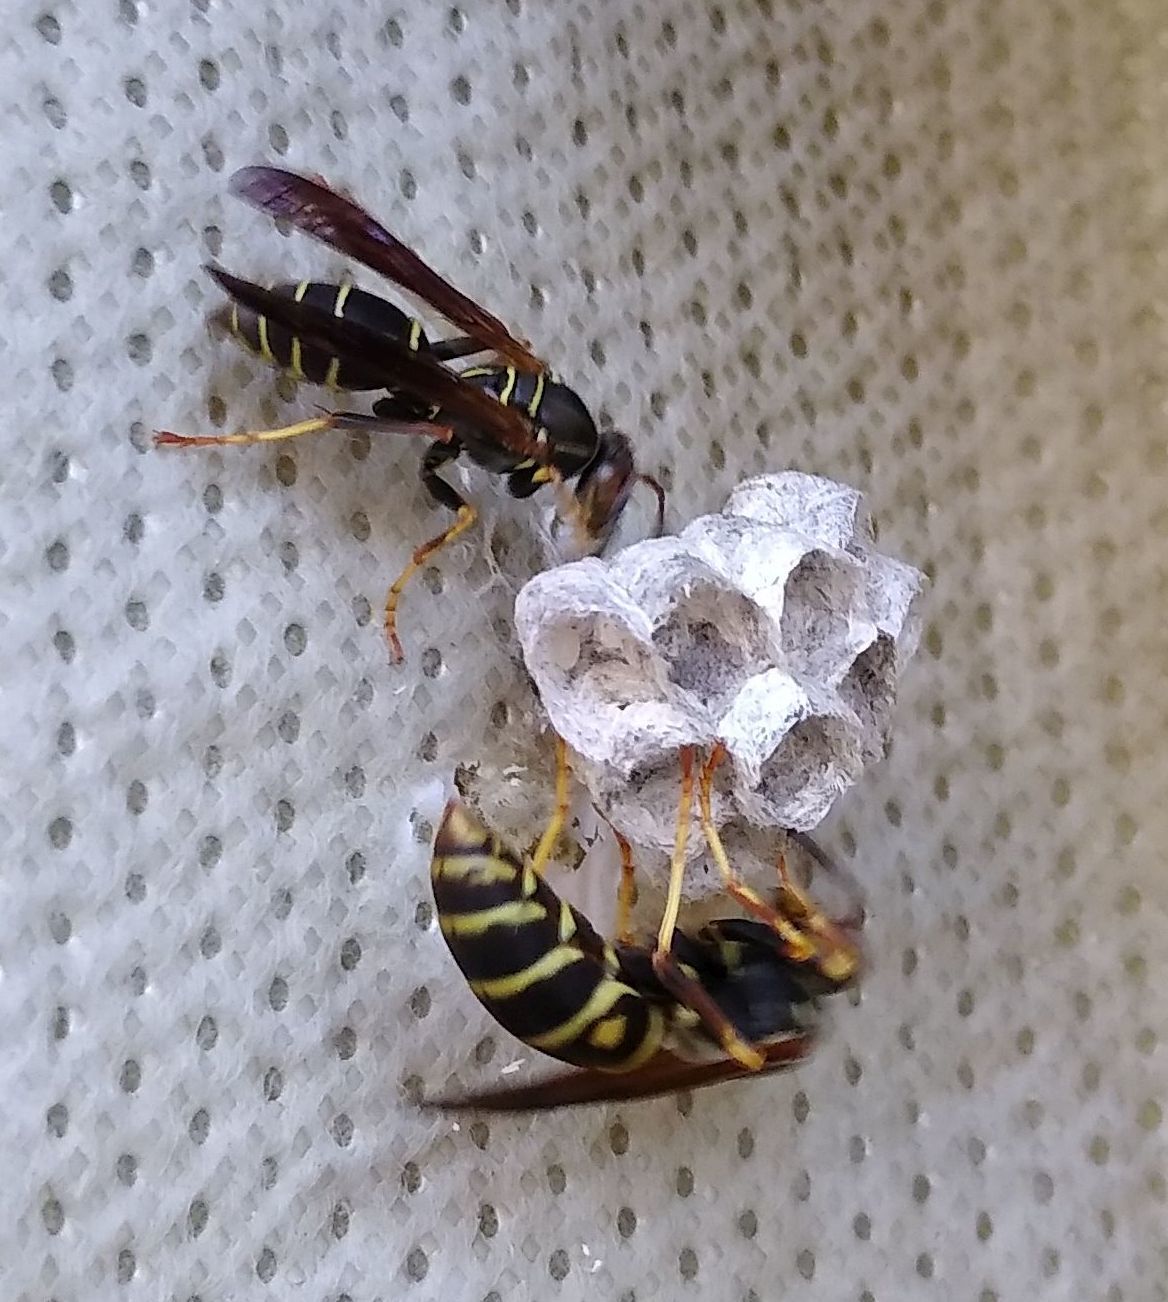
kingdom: Animalia
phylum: Arthropoda
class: Insecta
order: Hymenoptera
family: Eumenidae
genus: Polistes
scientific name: Polistes fuscatus
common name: Dark paper wasp
